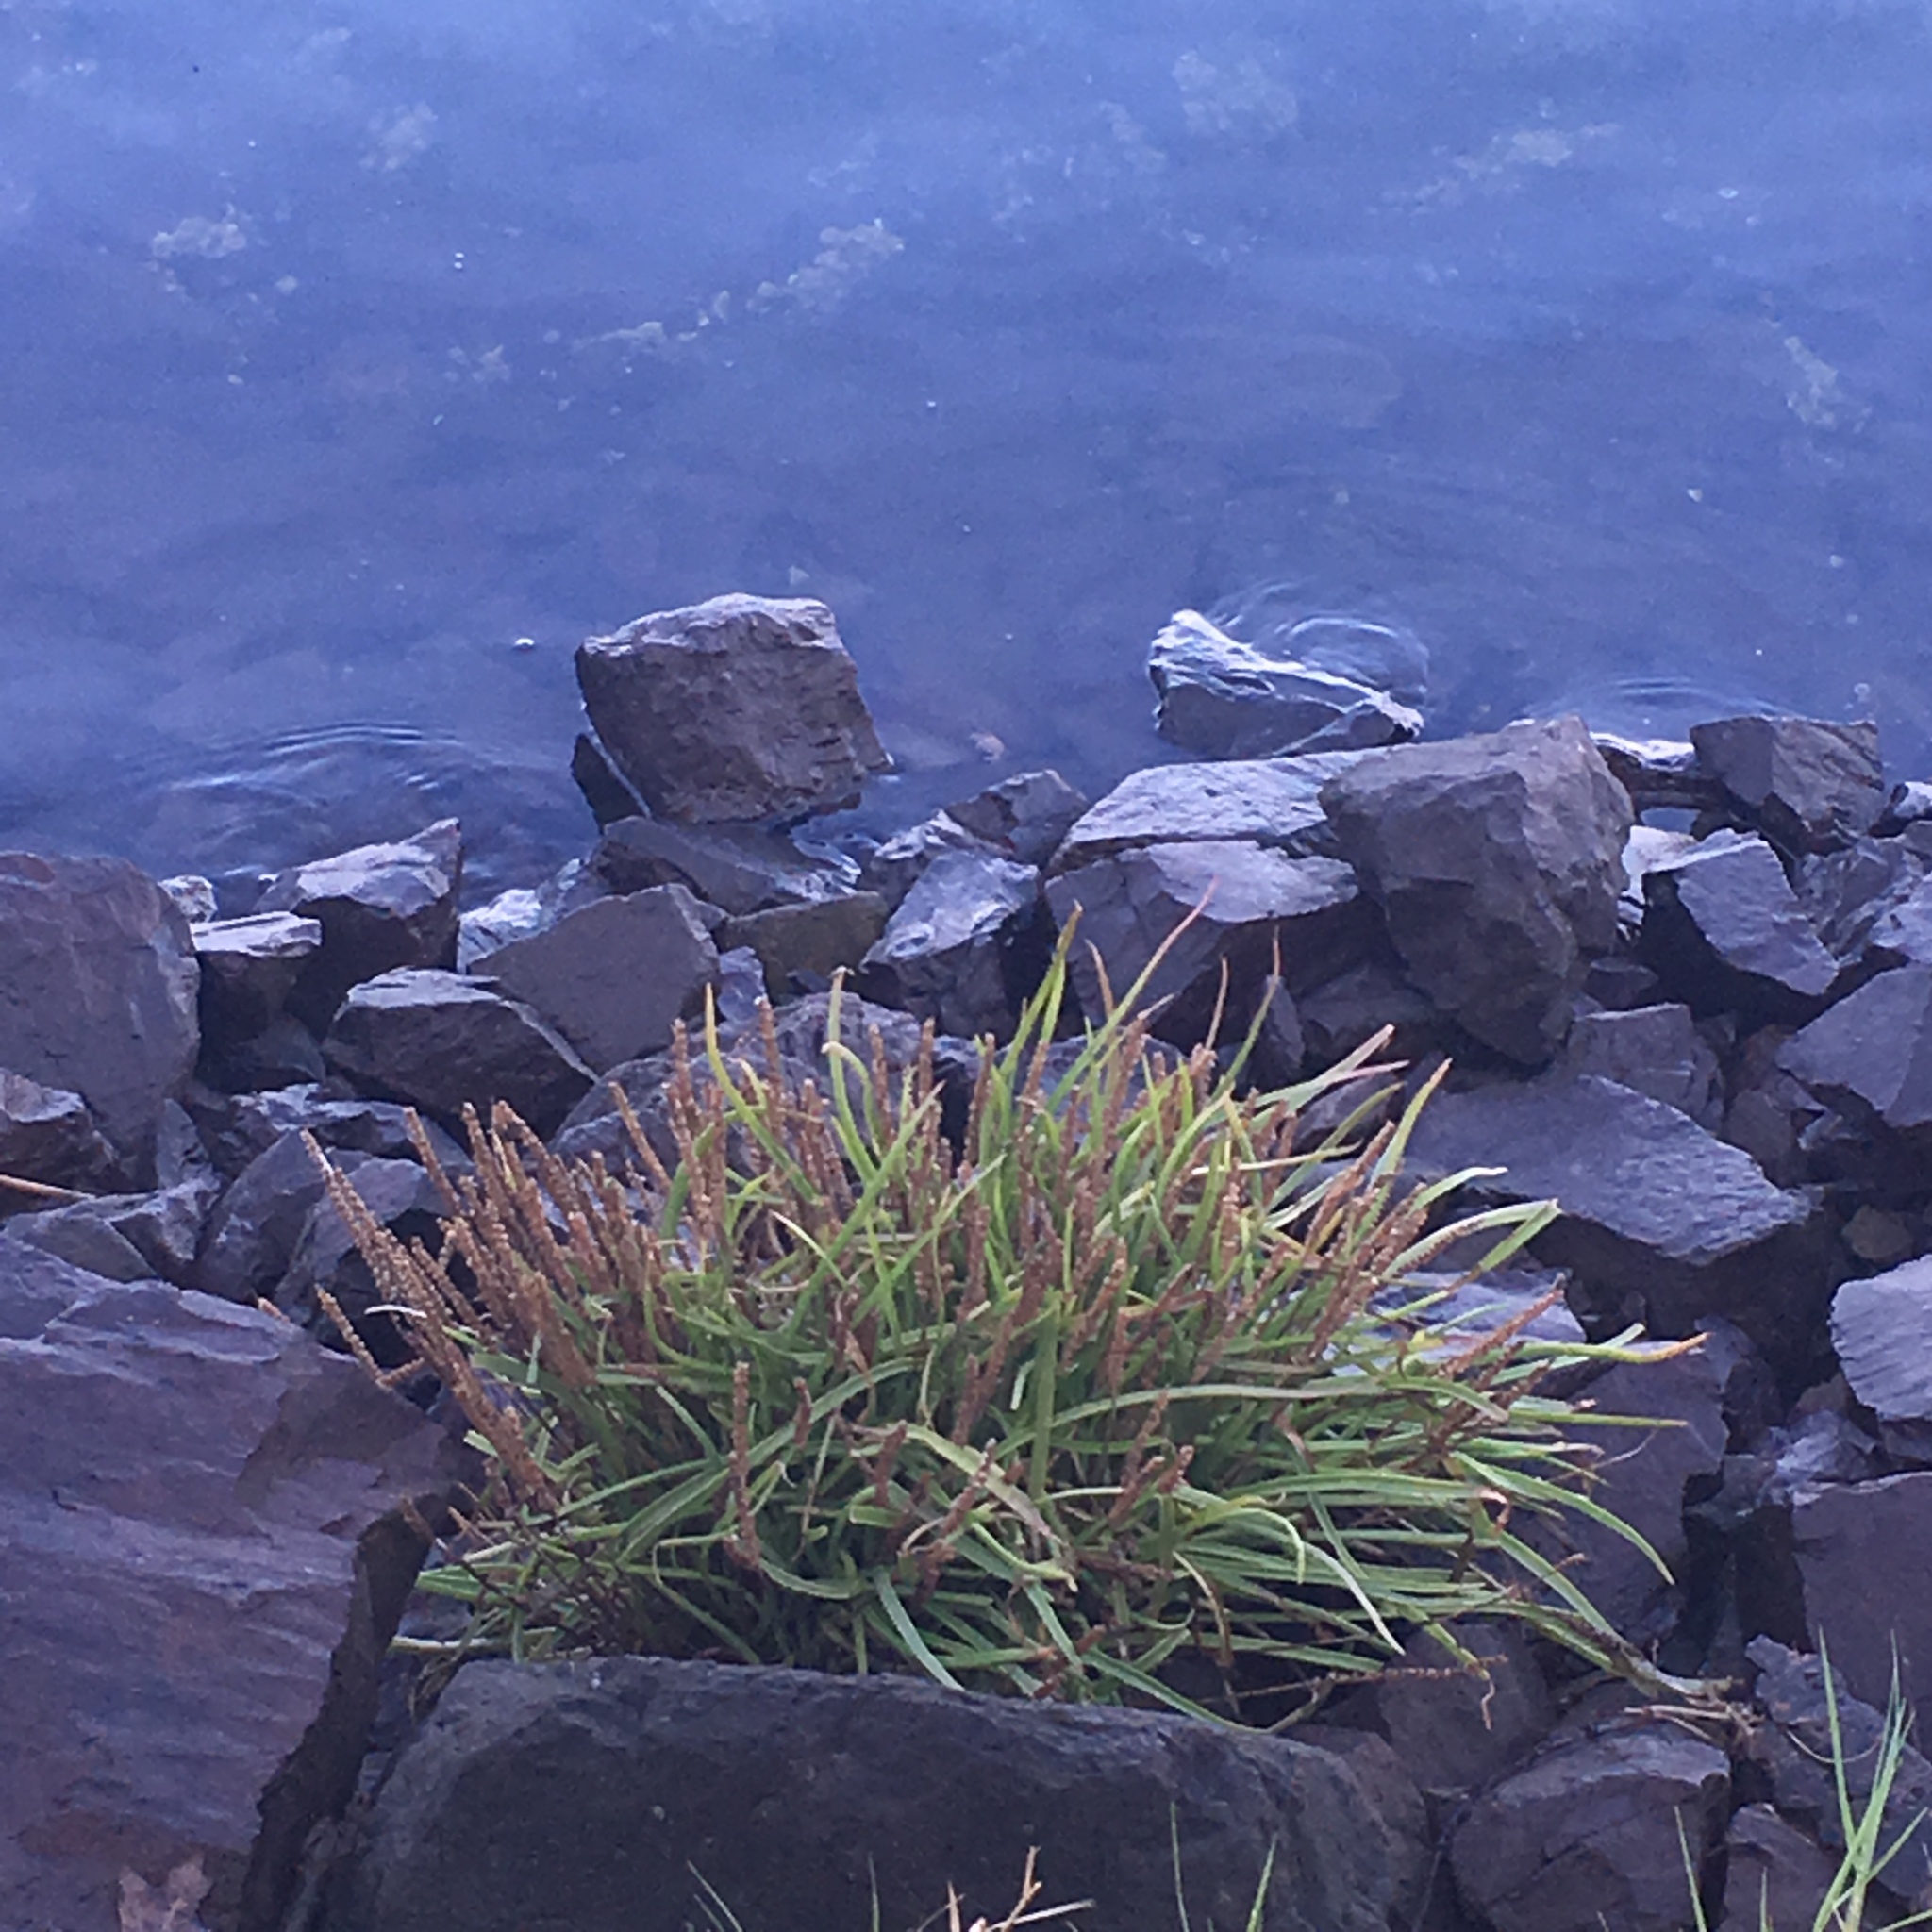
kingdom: Plantae
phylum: Tracheophyta
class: Magnoliopsida
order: Lamiales
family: Plantaginaceae
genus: Plantago
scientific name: Plantago maritima
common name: Sea plantain
